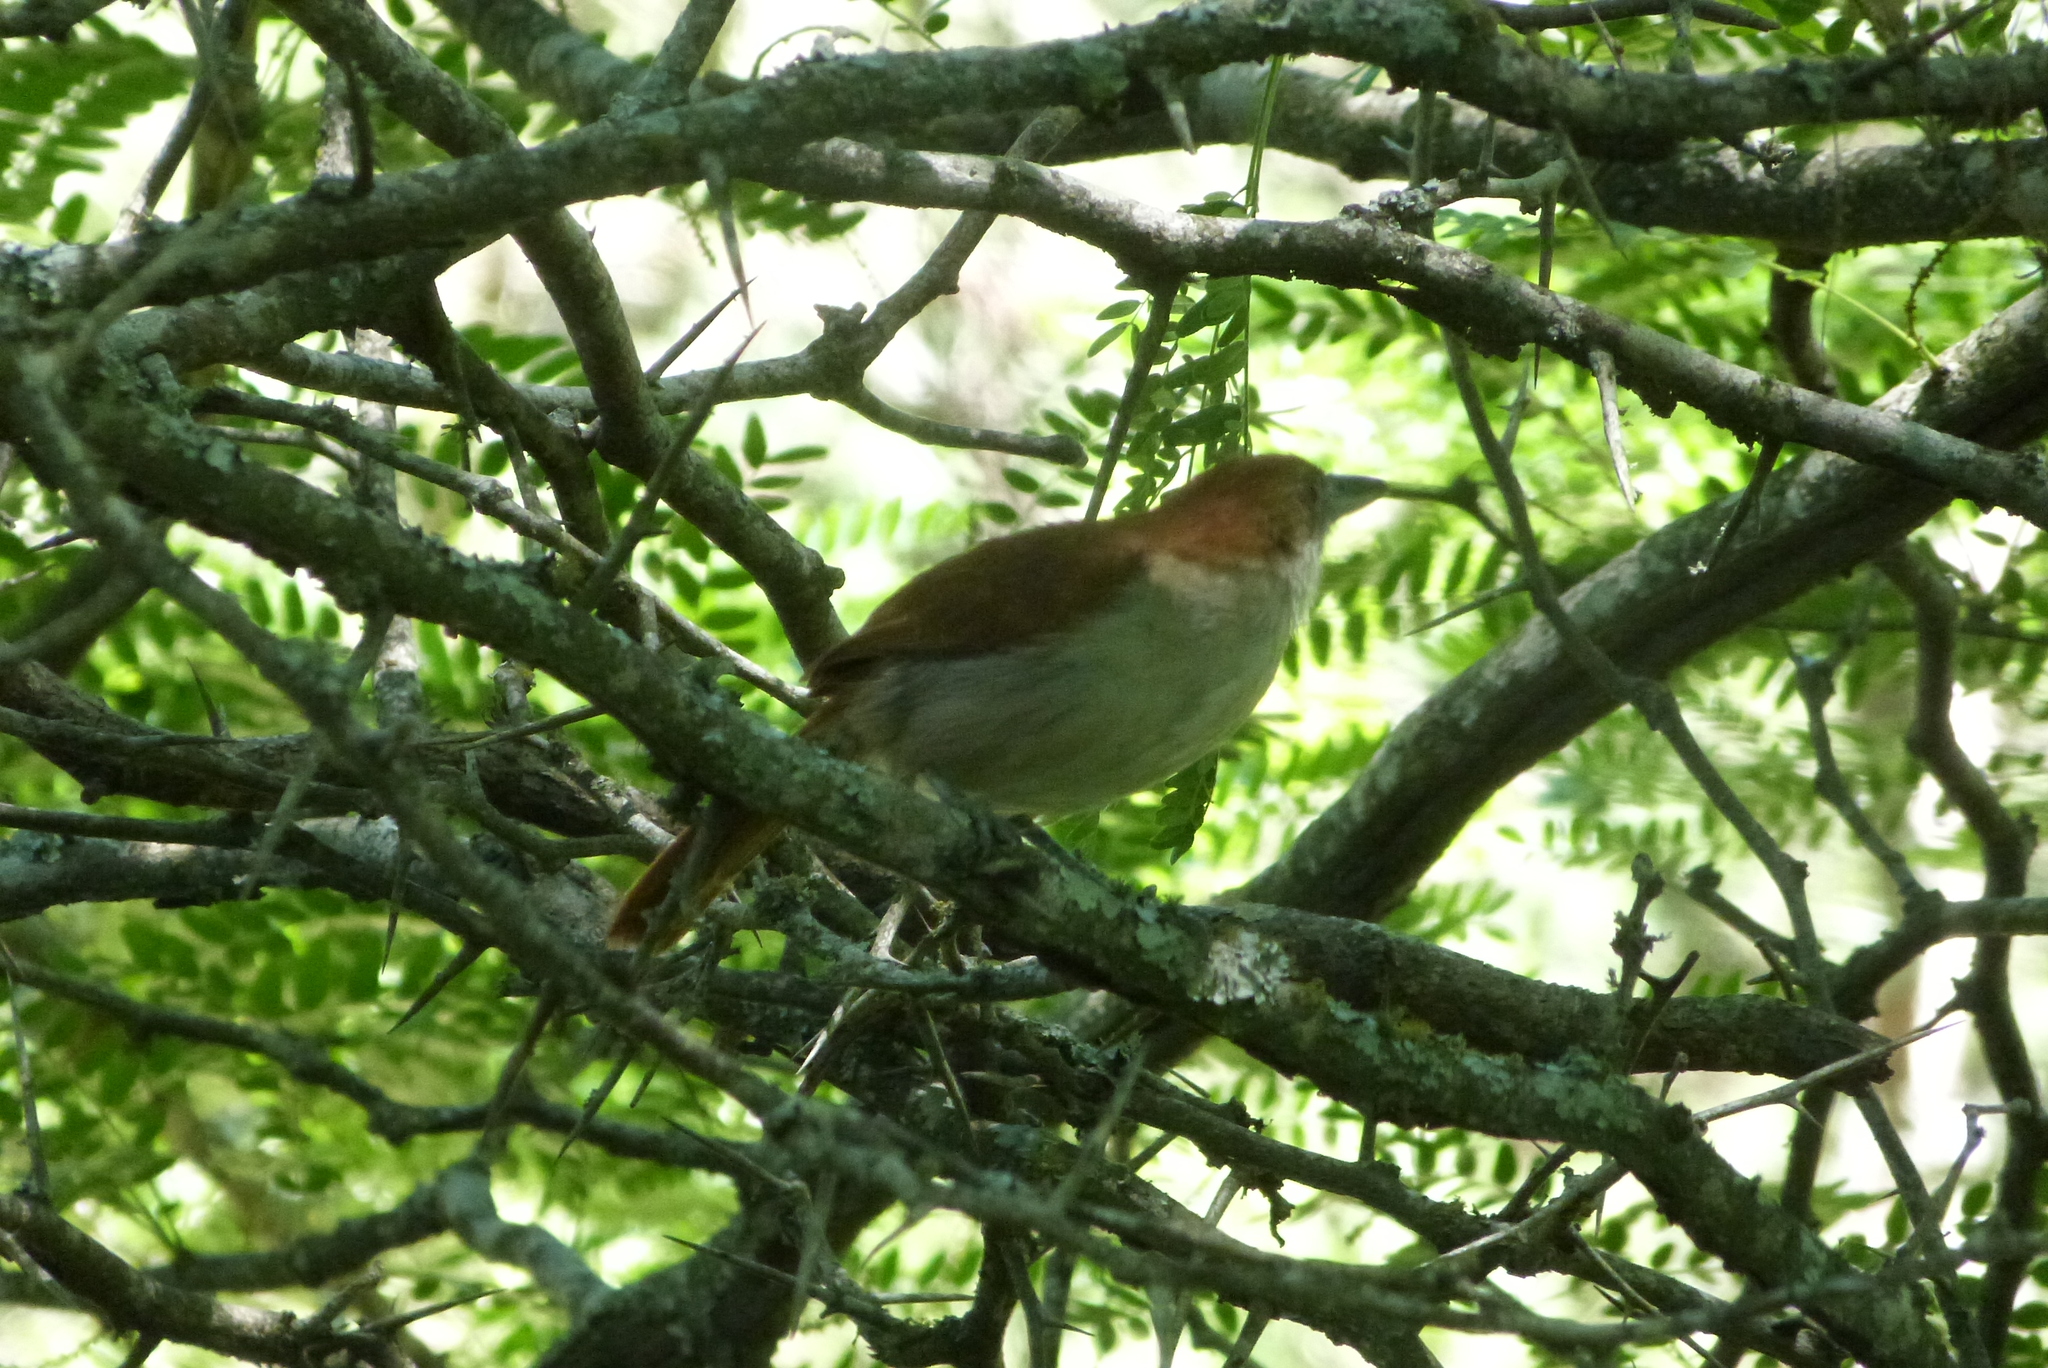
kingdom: Animalia
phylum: Chordata
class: Aves
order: Passeriformes
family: Thamnophilidae
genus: Taraba
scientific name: Taraba major
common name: Great antshrike
